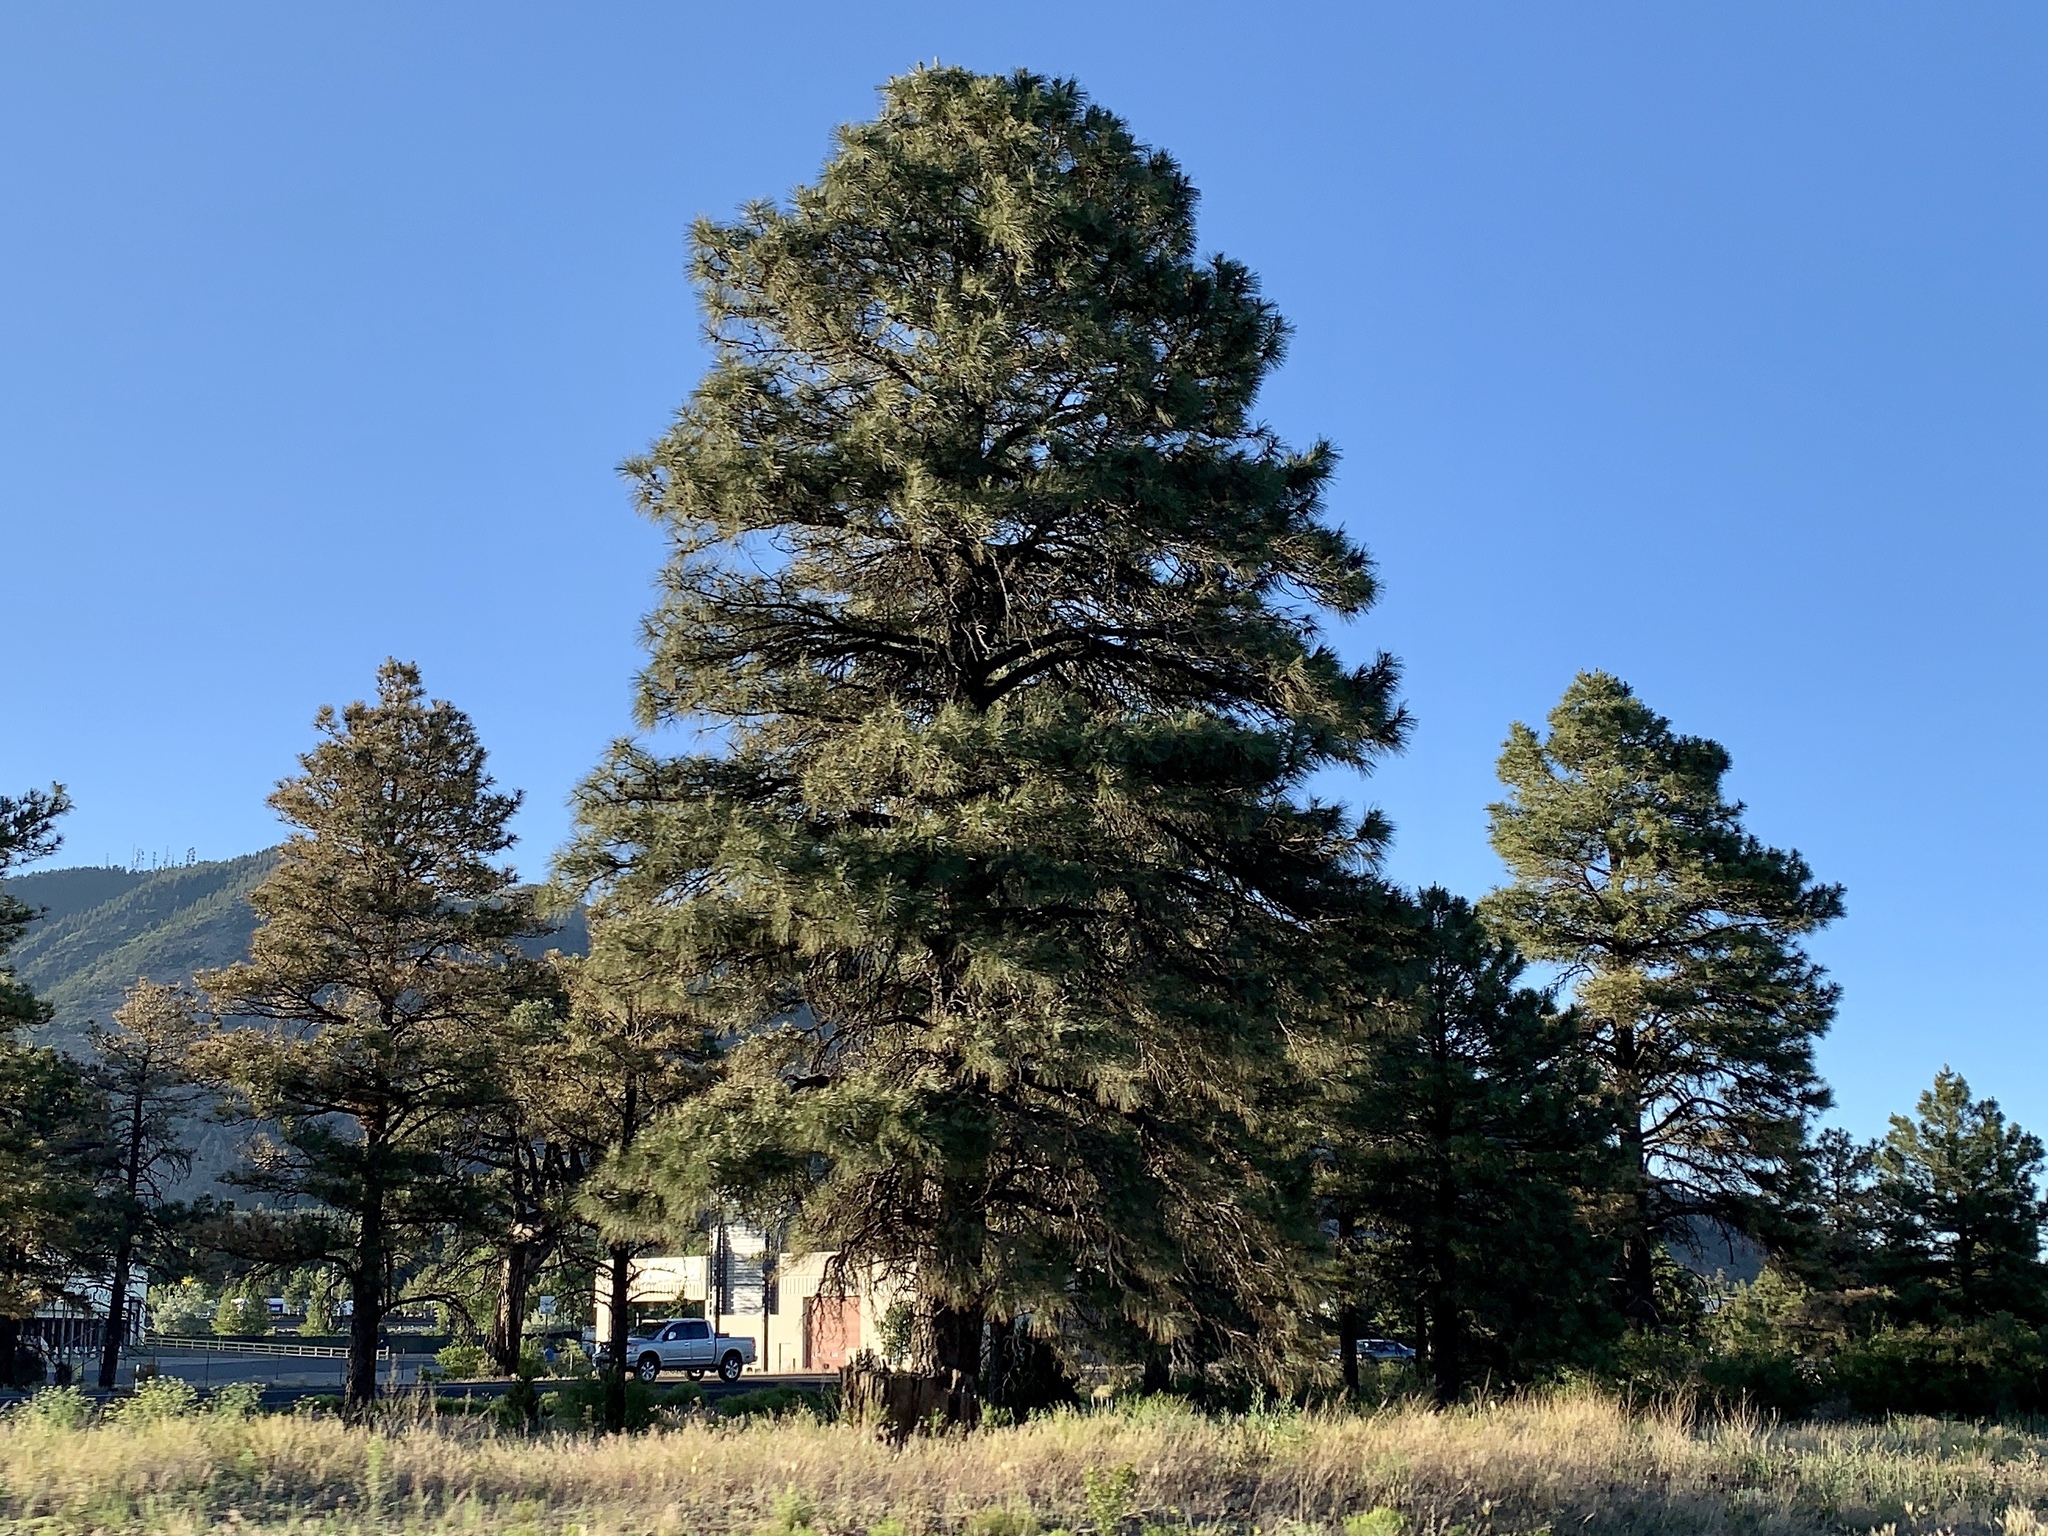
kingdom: Plantae
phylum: Tracheophyta
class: Pinopsida
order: Pinales
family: Pinaceae
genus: Pinus
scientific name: Pinus ponderosa
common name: Western yellow-pine
